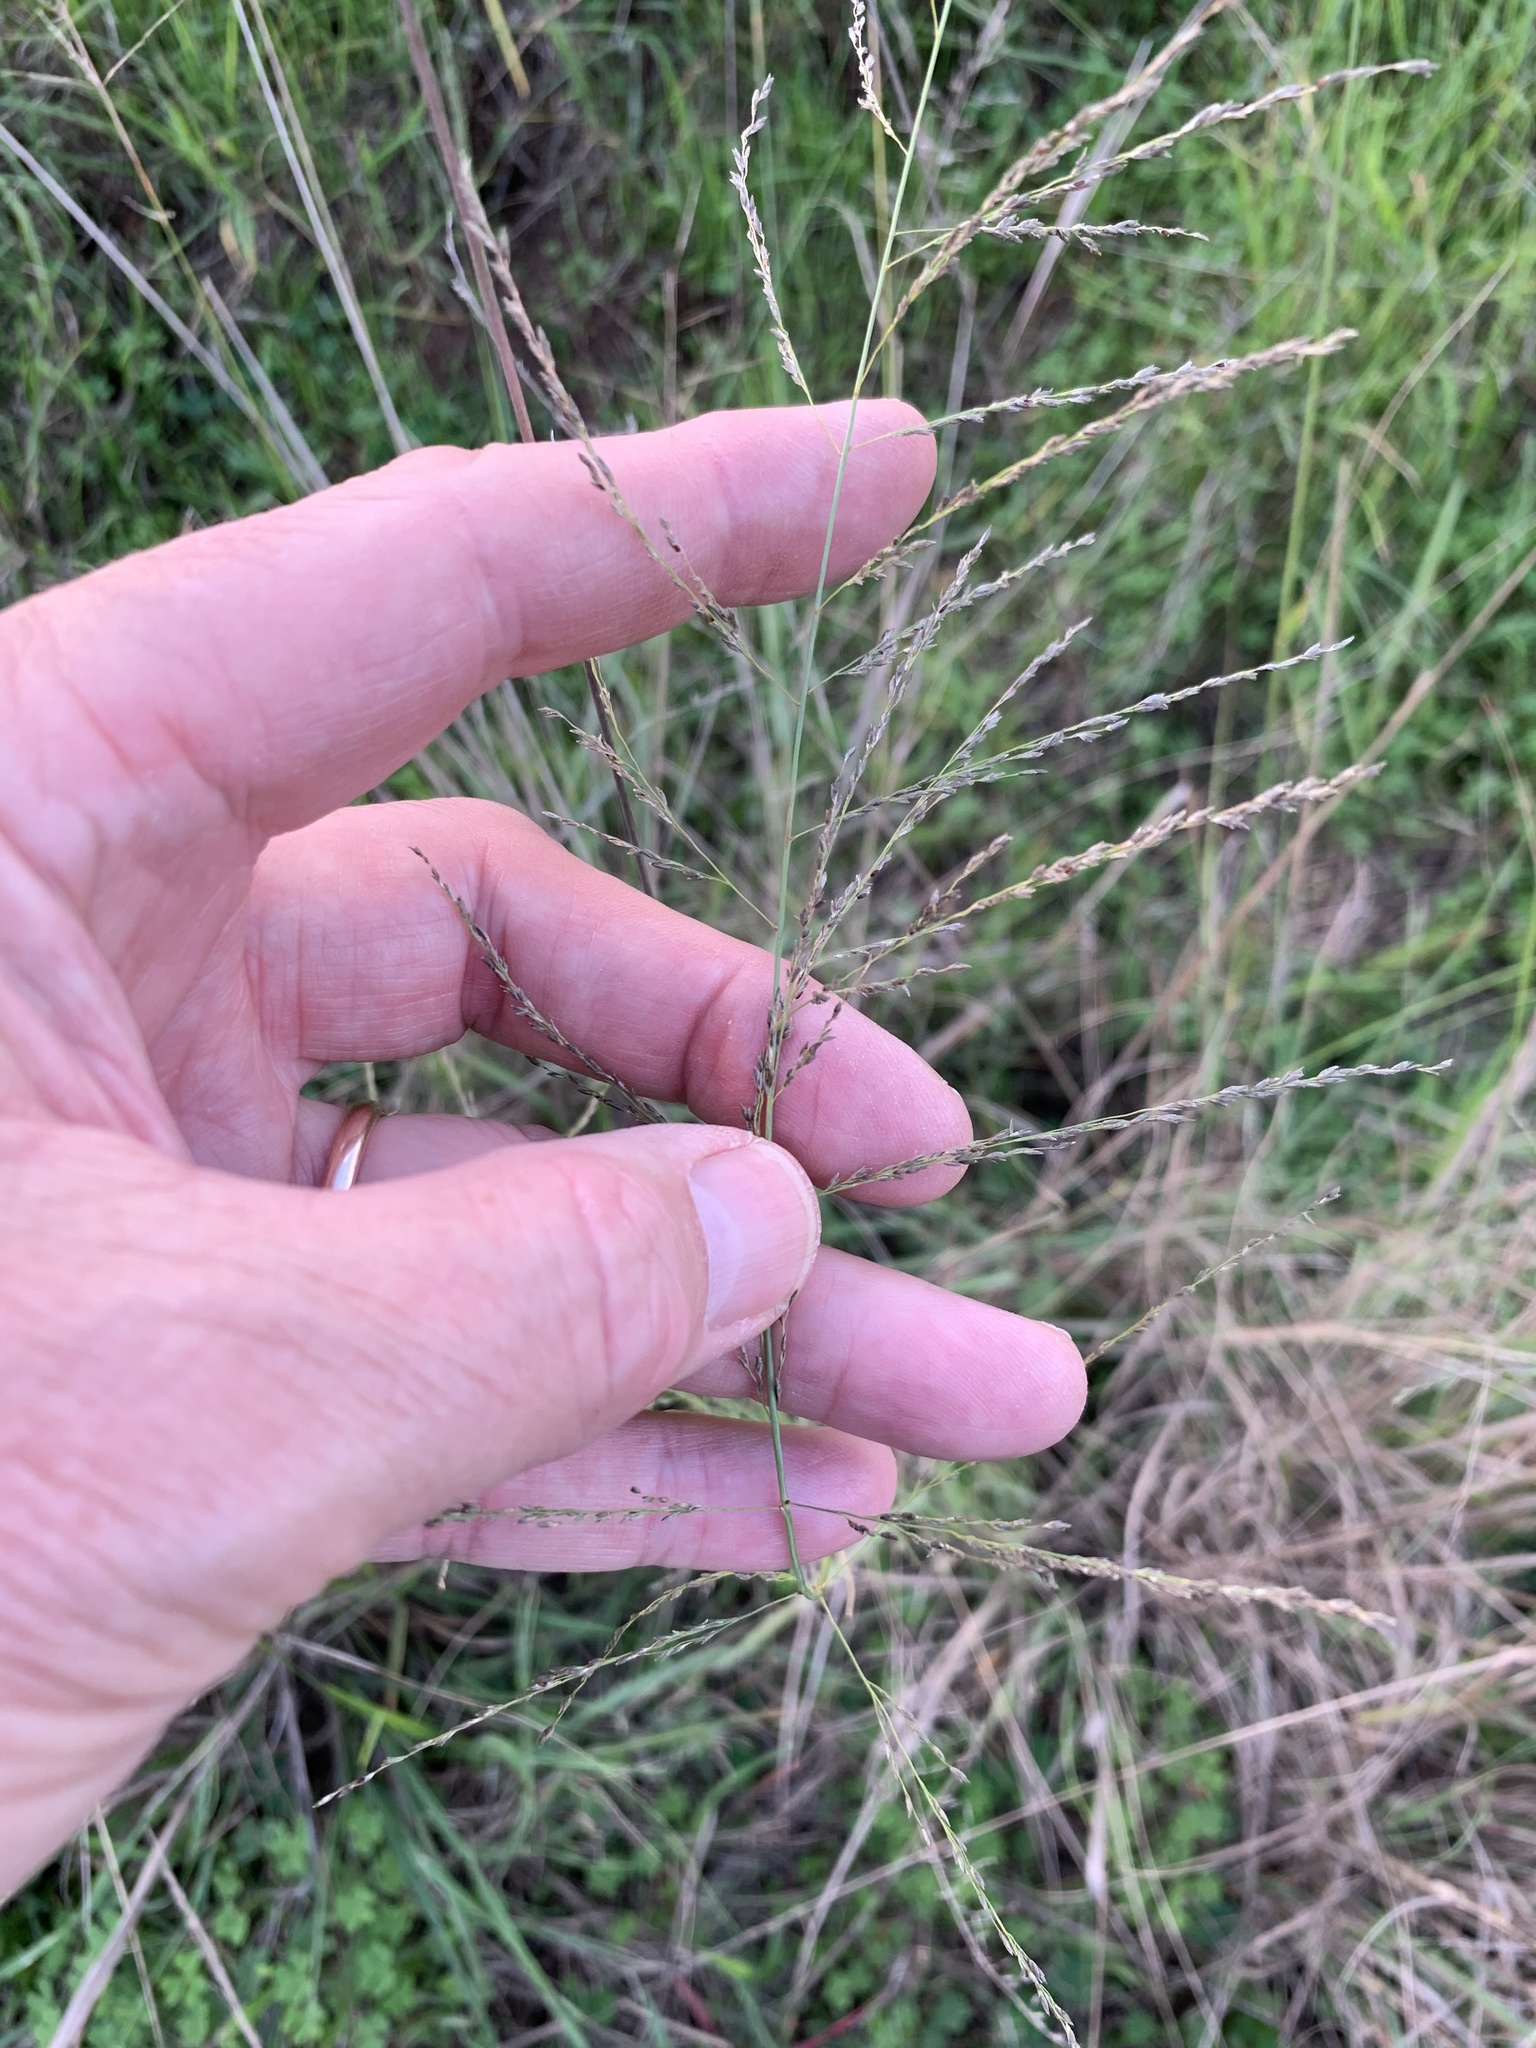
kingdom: Plantae
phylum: Tracheophyta
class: Liliopsida
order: Poales
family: Poaceae
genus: Eragrostis
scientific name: Eragrostis curvula
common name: African love-grass
